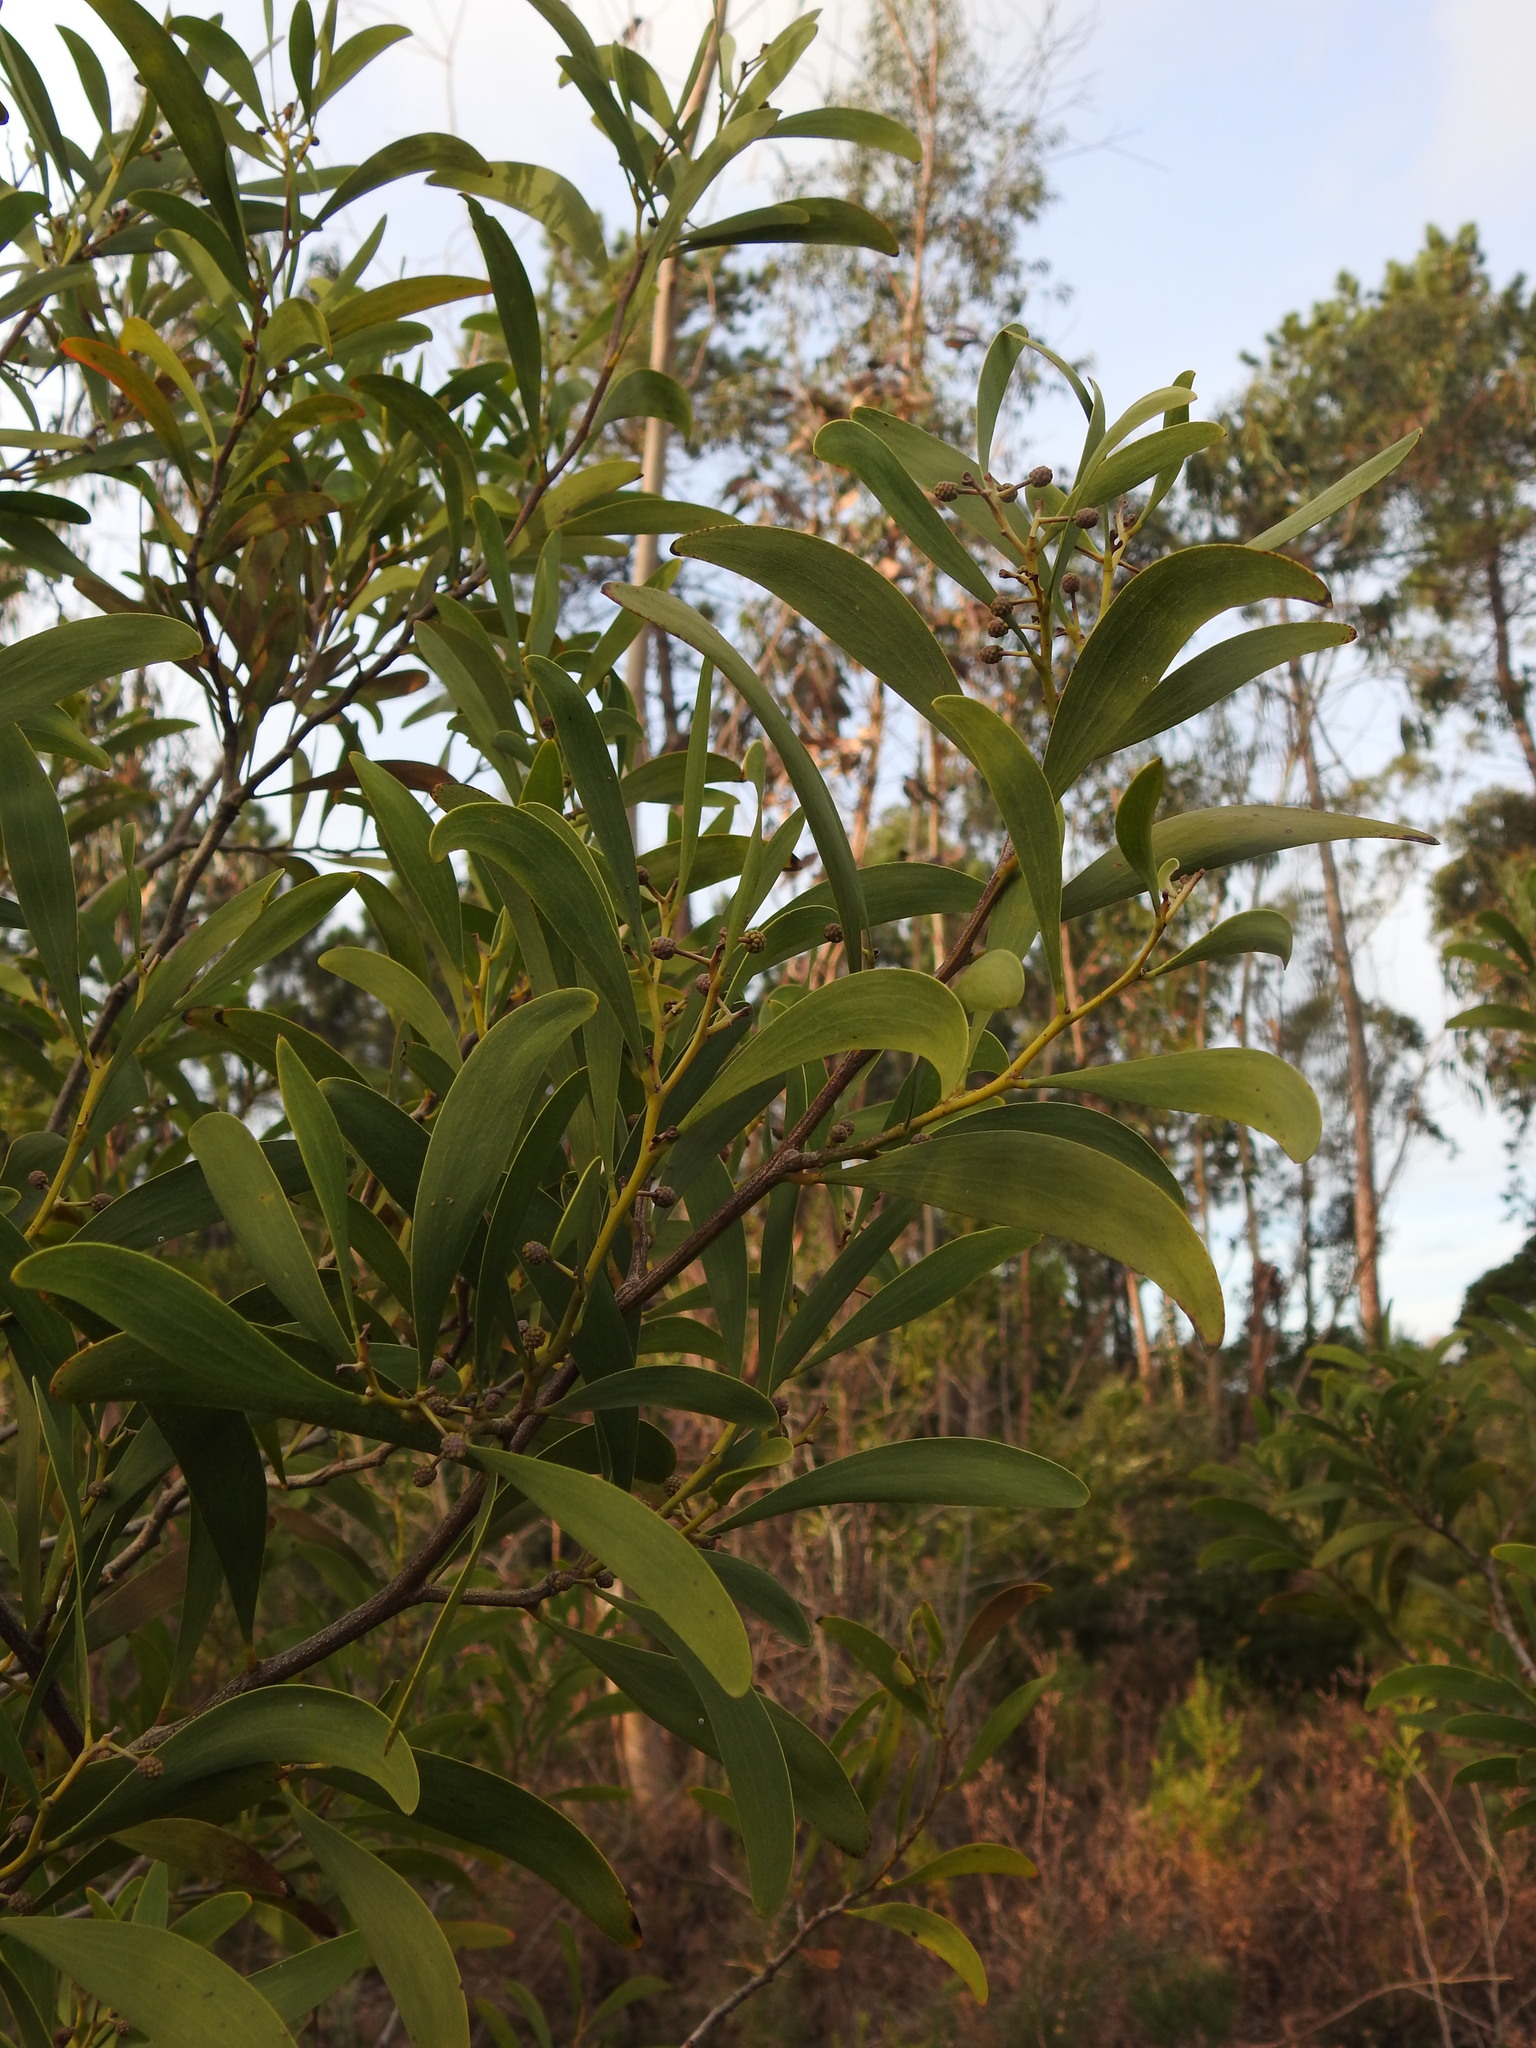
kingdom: Plantae
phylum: Tracheophyta
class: Magnoliopsida
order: Fabales
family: Fabaceae
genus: Acacia
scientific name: Acacia melanoxylon
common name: Blackwood
